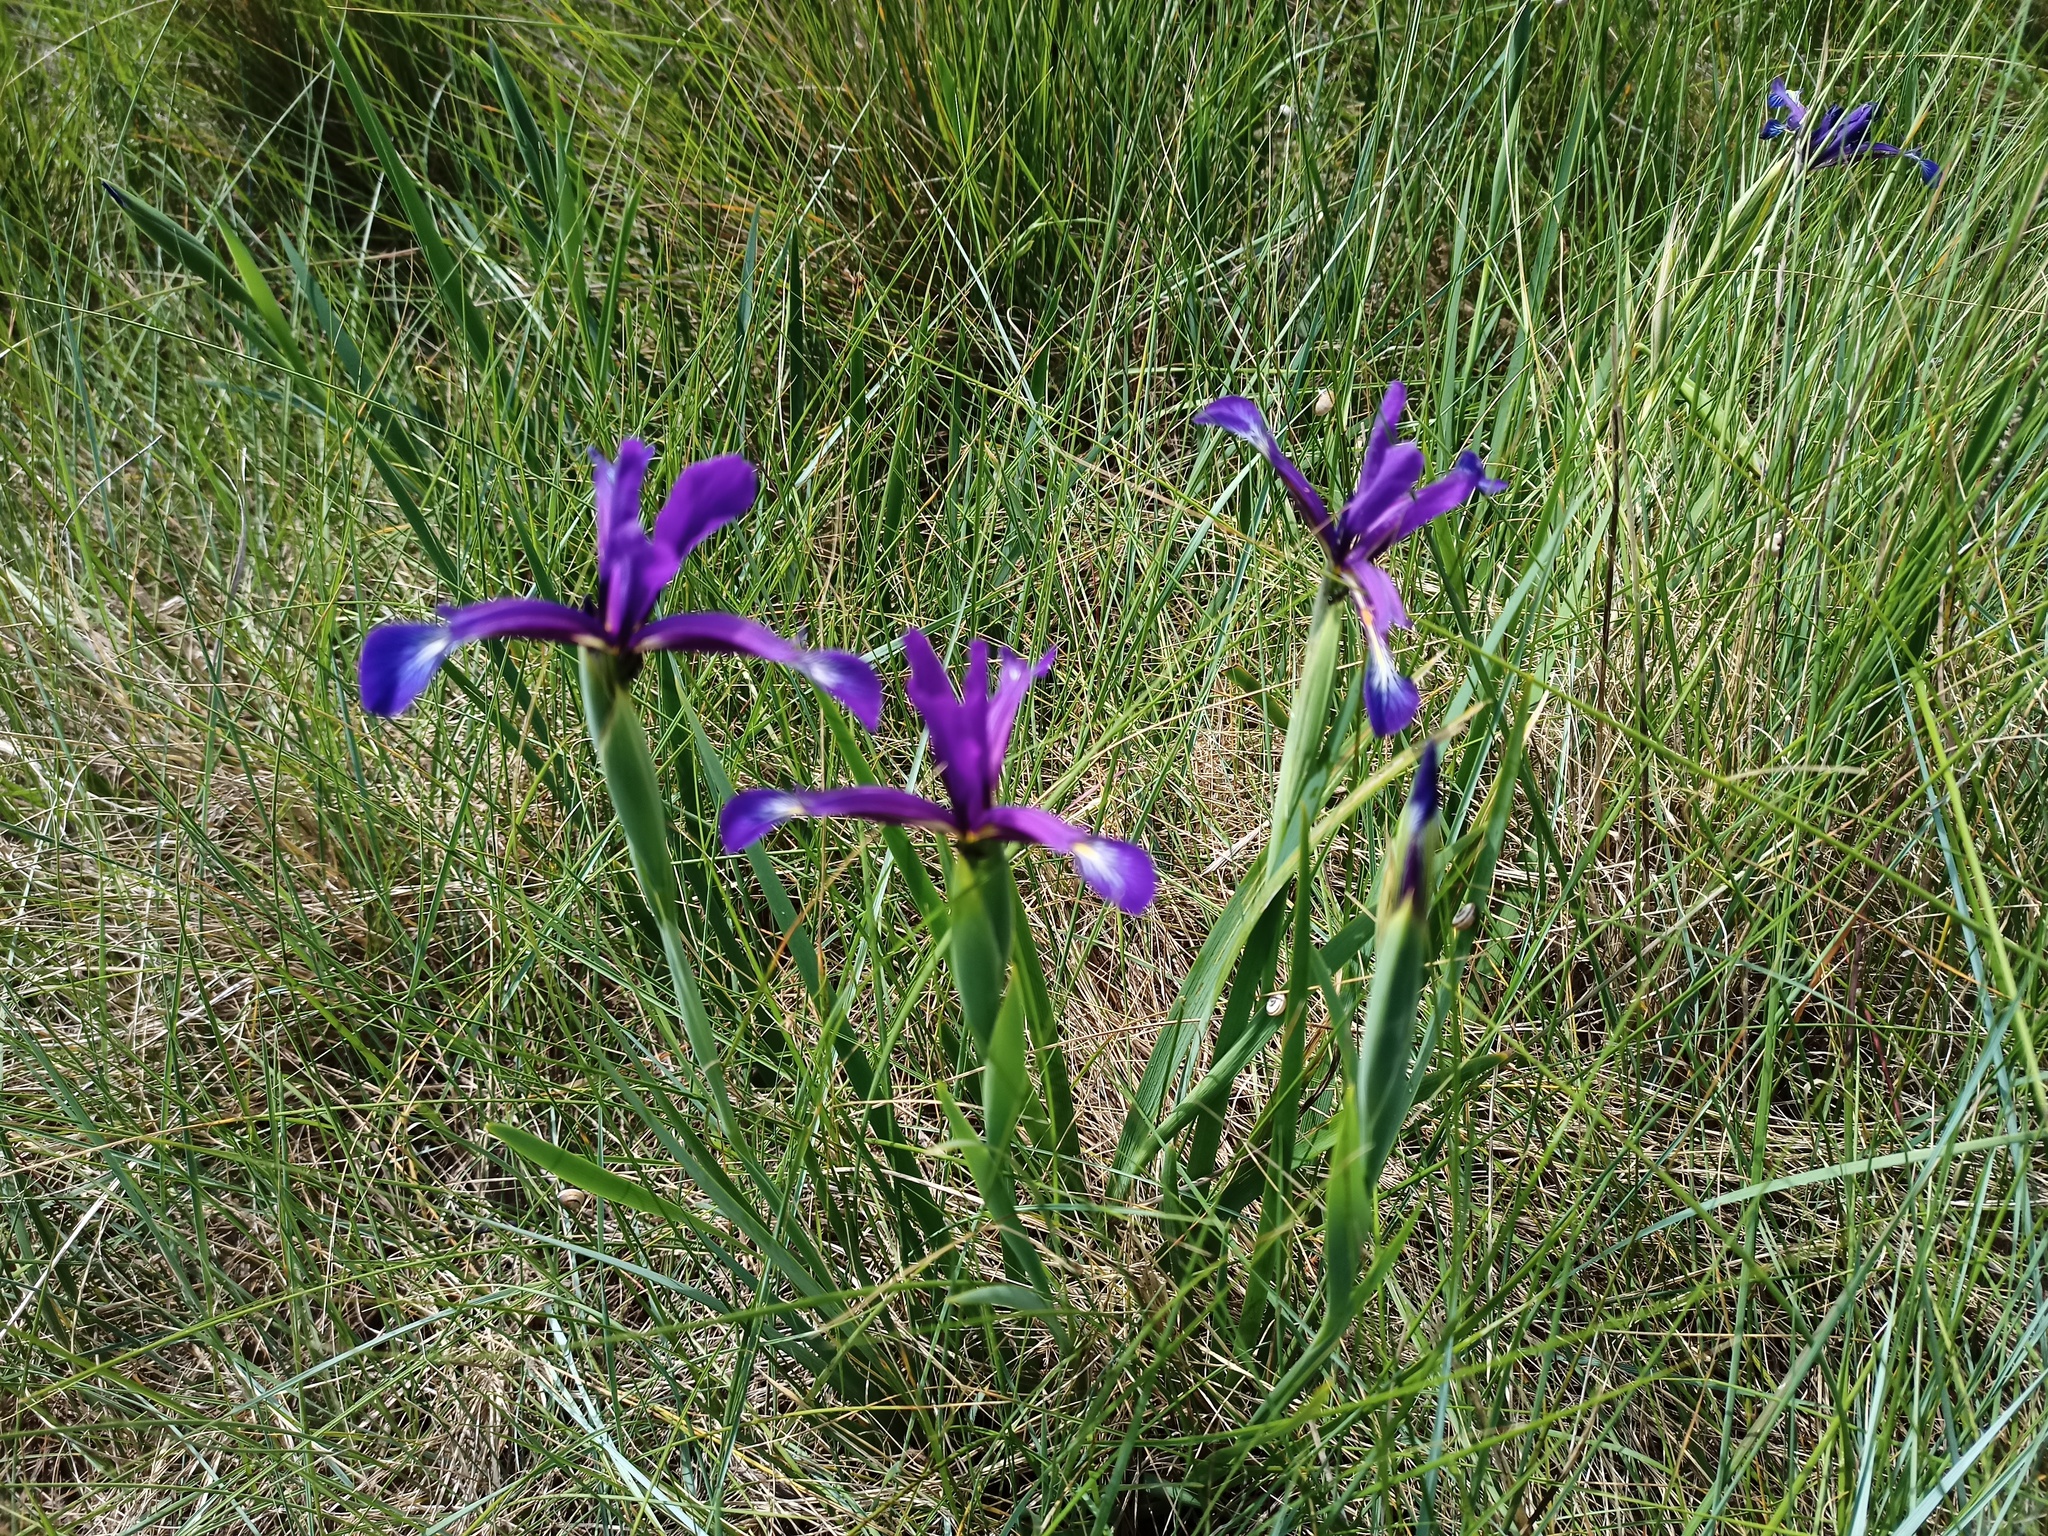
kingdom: Plantae
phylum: Tracheophyta
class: Liliopsida
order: Asparagales
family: Iridaceae
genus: Iris
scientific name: Iris reichenbachiana
